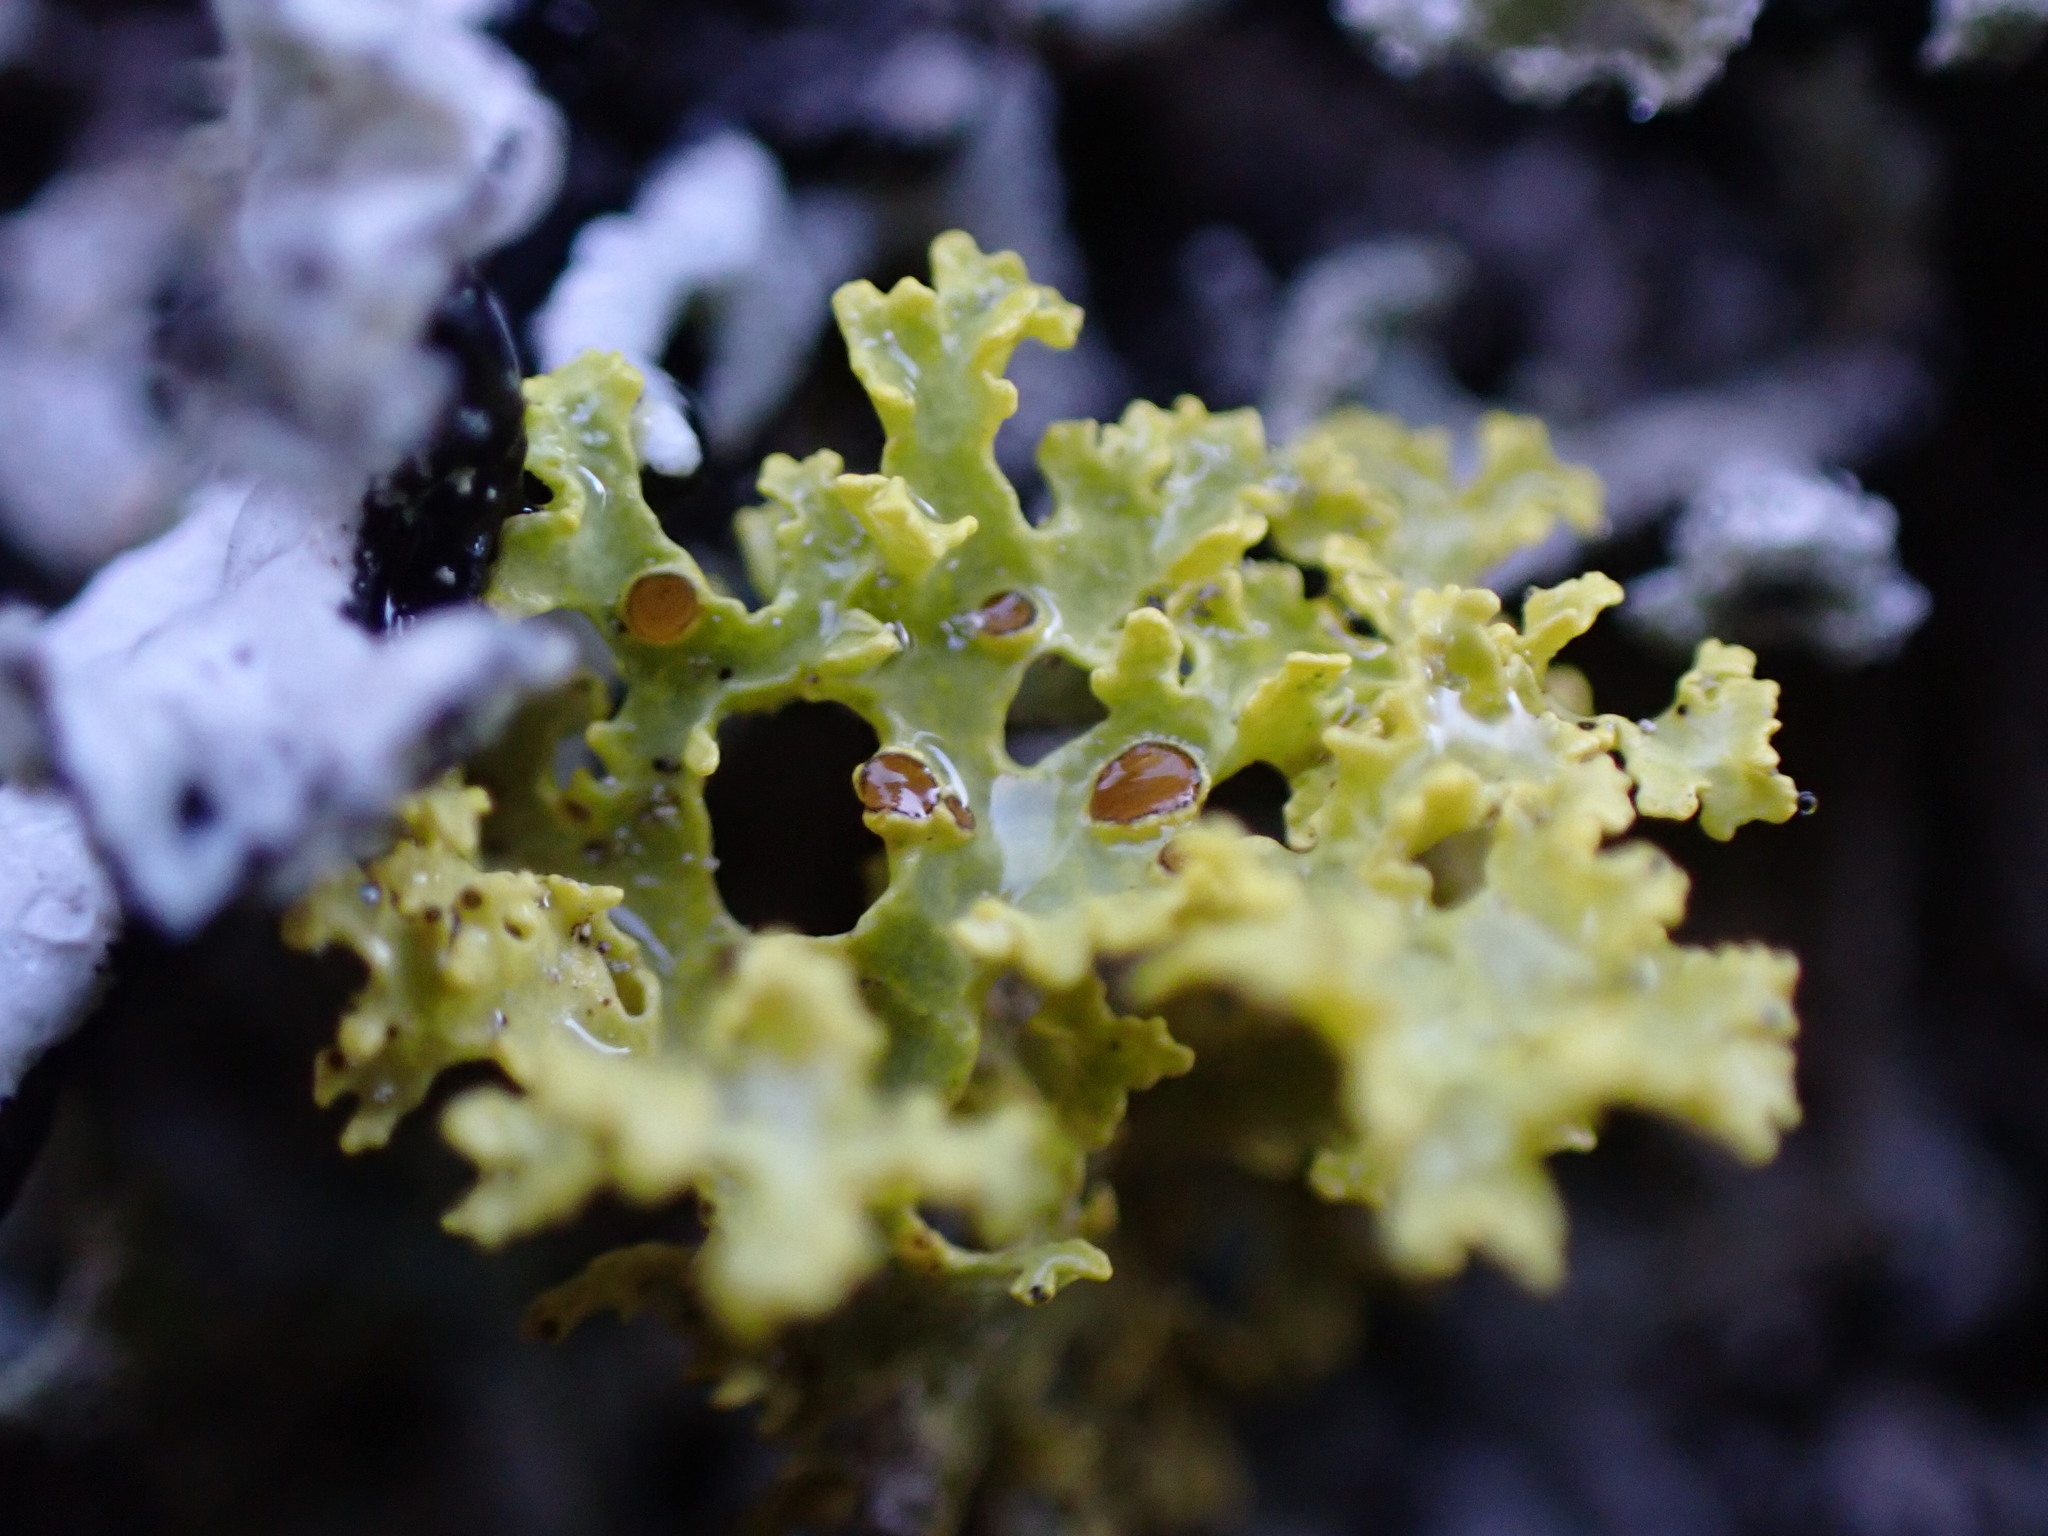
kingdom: Fungi
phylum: Ascomycota
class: Lecanoromycetes
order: Lecanorales
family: Parmeliaceae
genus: Vulpicida
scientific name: Vulpicida canadensis
